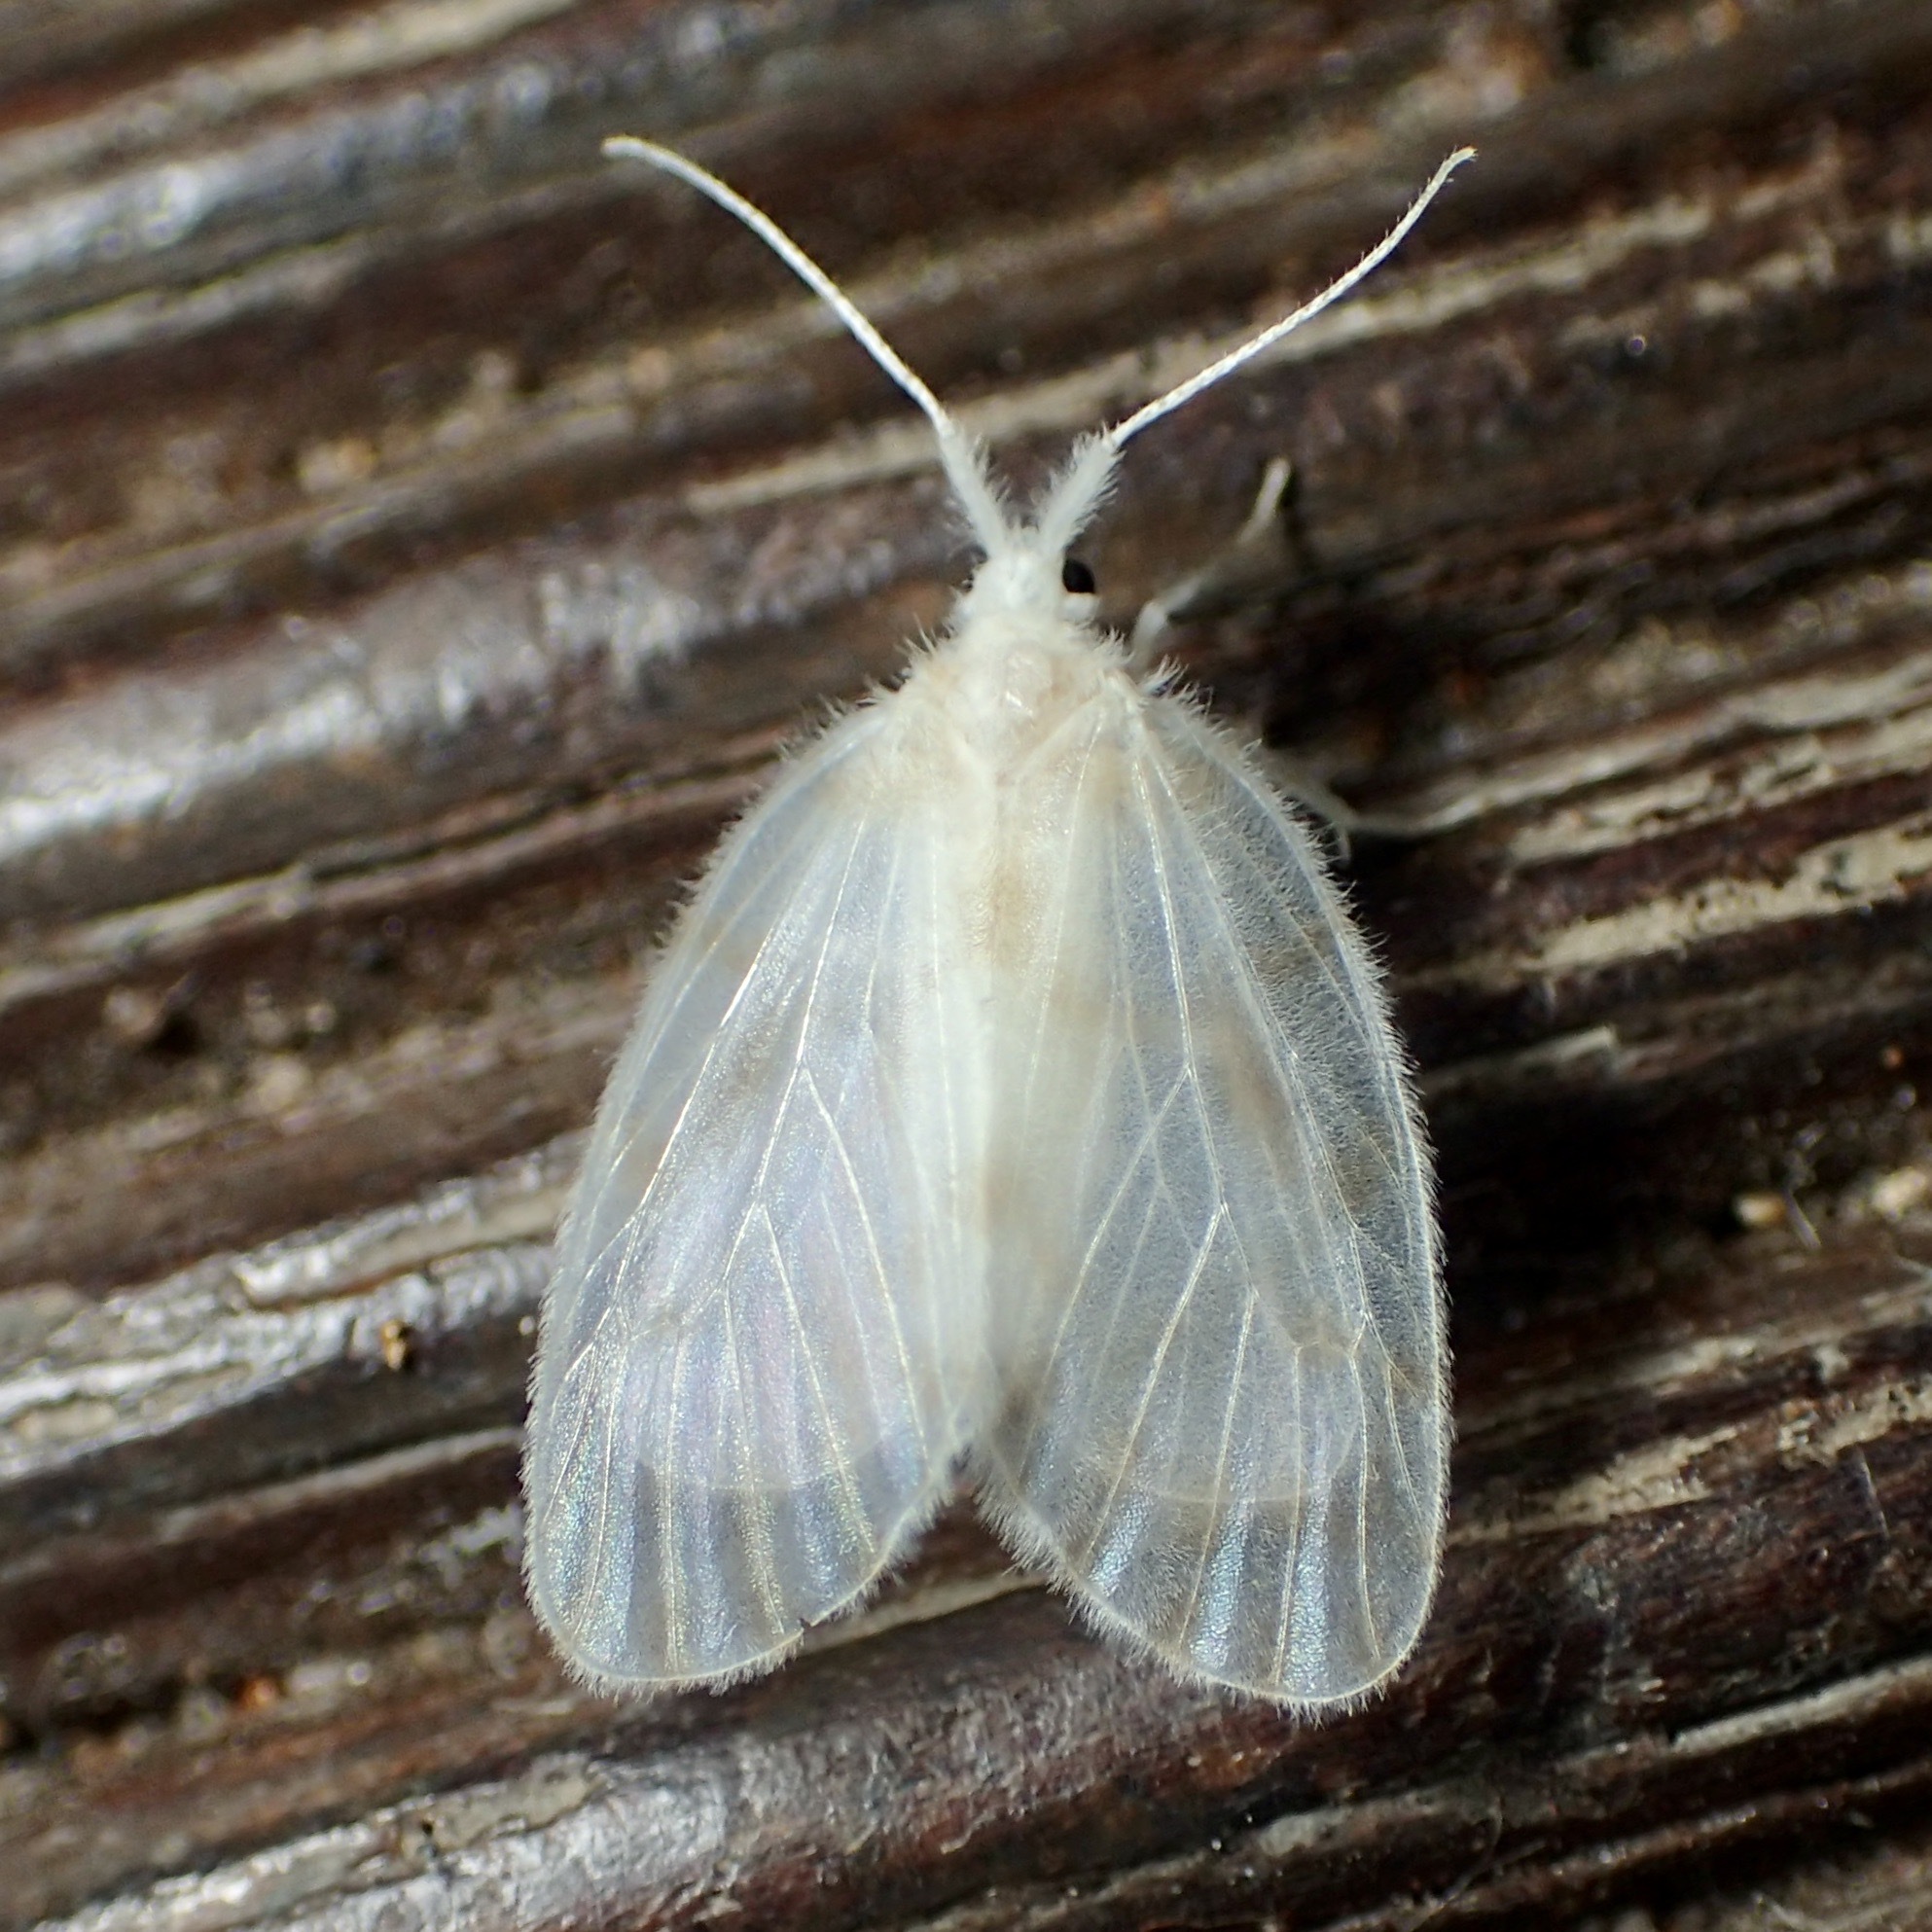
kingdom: Animalia
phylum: Arthropoda
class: Insecta
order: Lepidoptera
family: Erebidae
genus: Chamaita
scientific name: Chamaita barnardi
